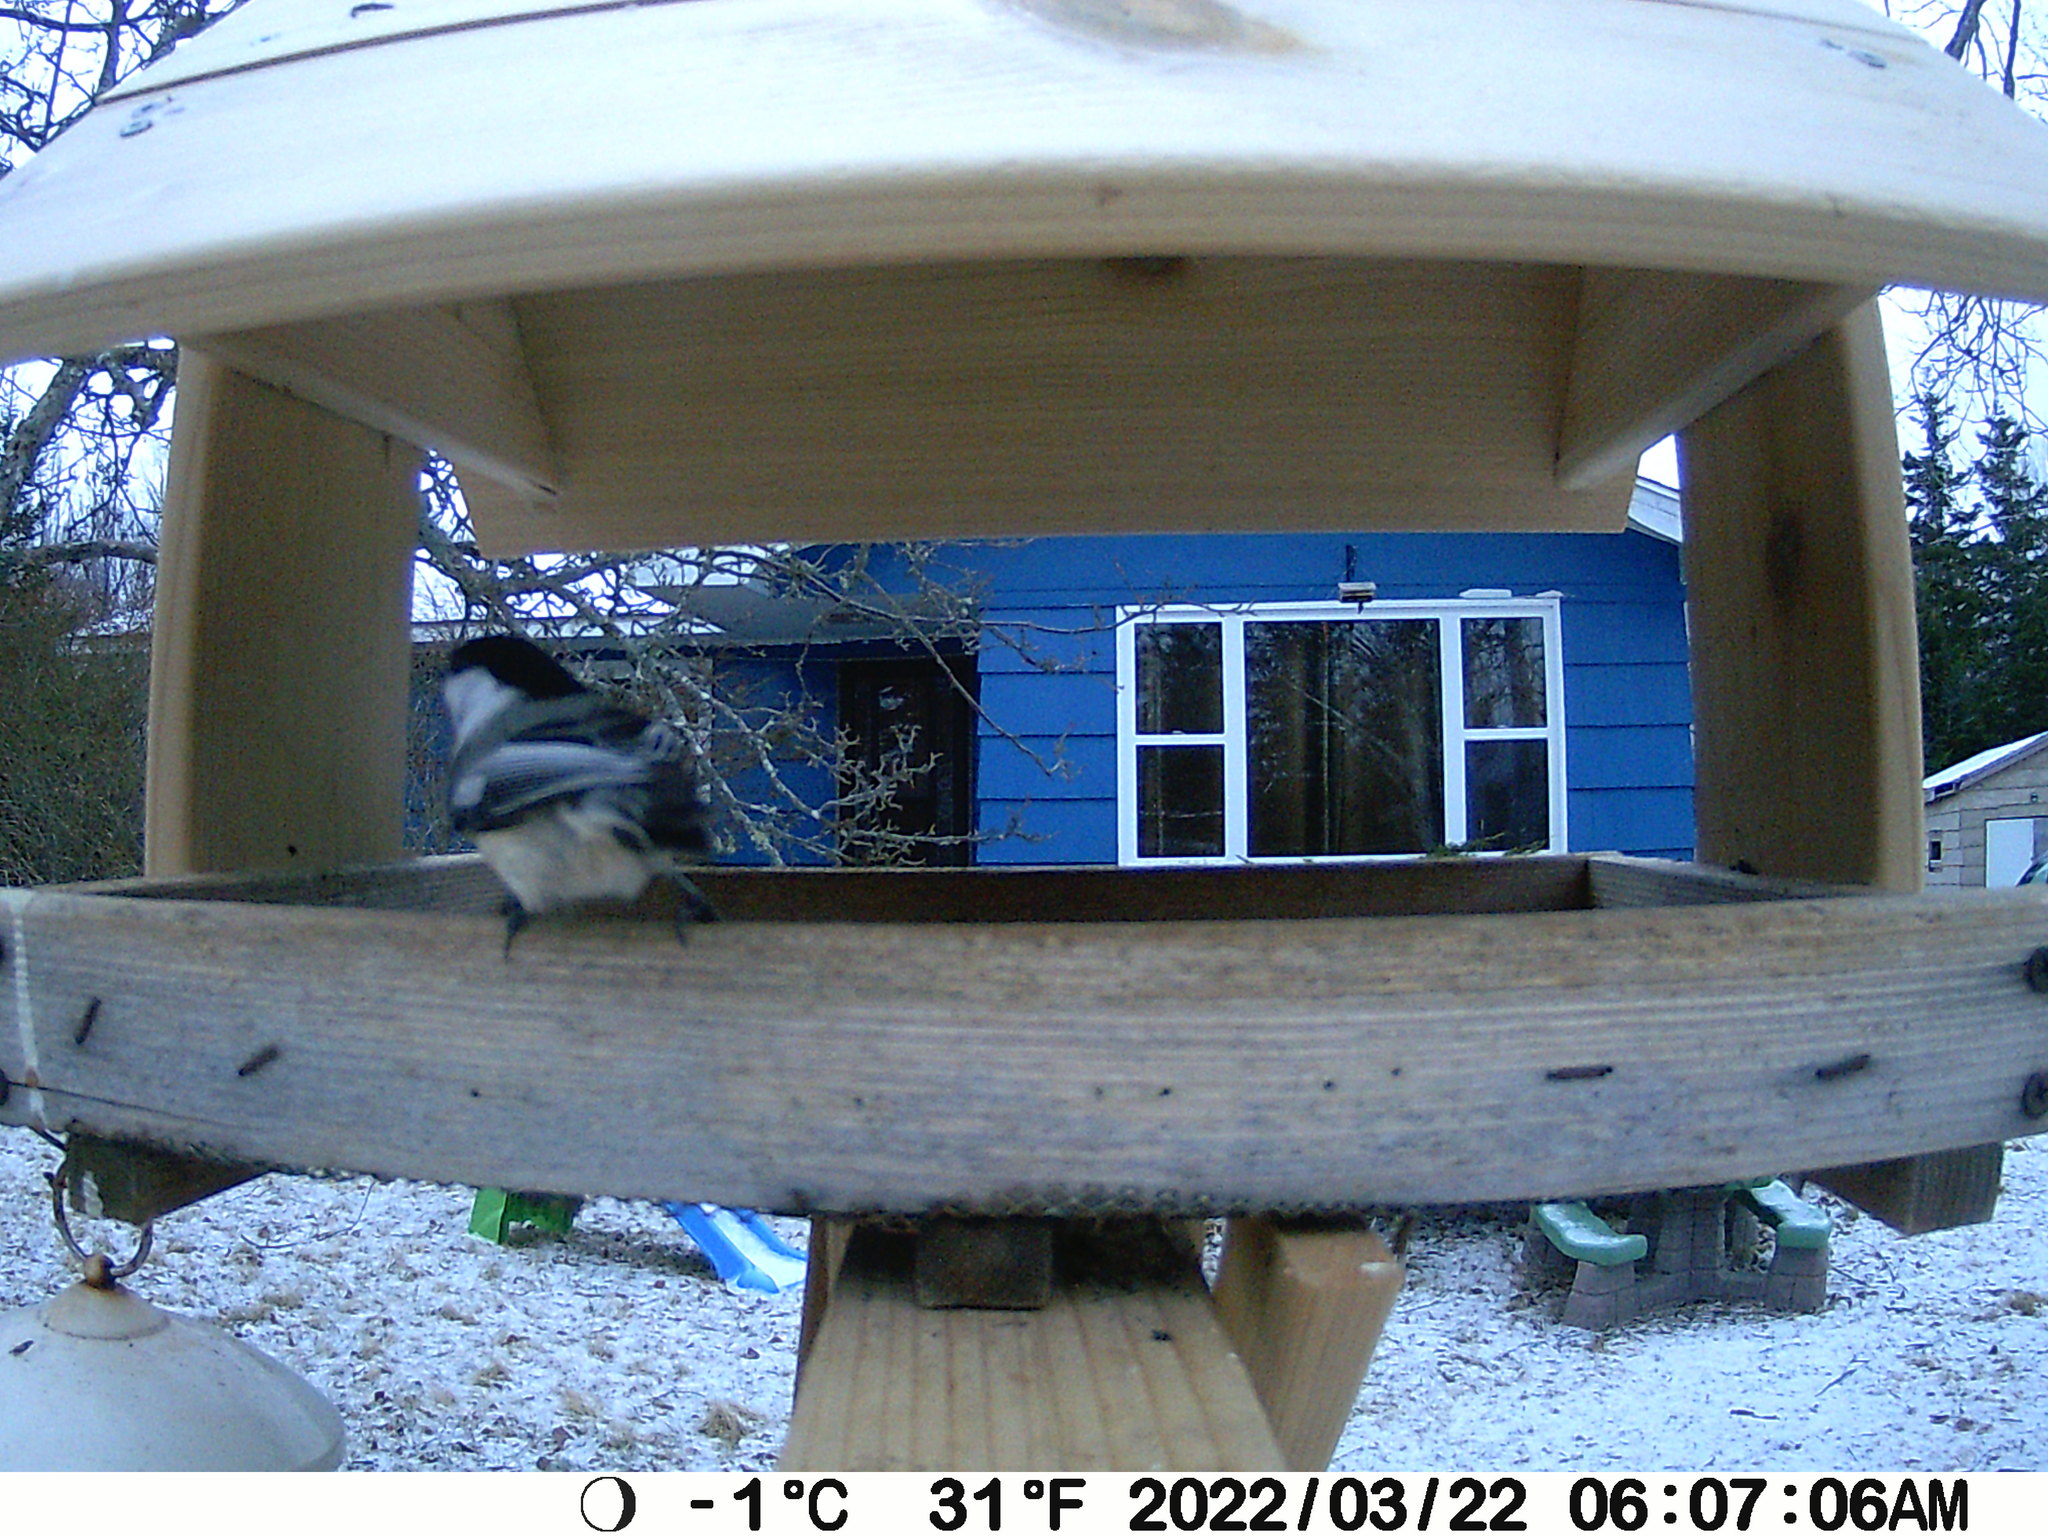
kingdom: Animalia
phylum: Chordata
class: Aves
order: Passeriformes
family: Paridae
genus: Poecile
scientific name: Poecile atricapillus
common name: Black-capped chickadee
